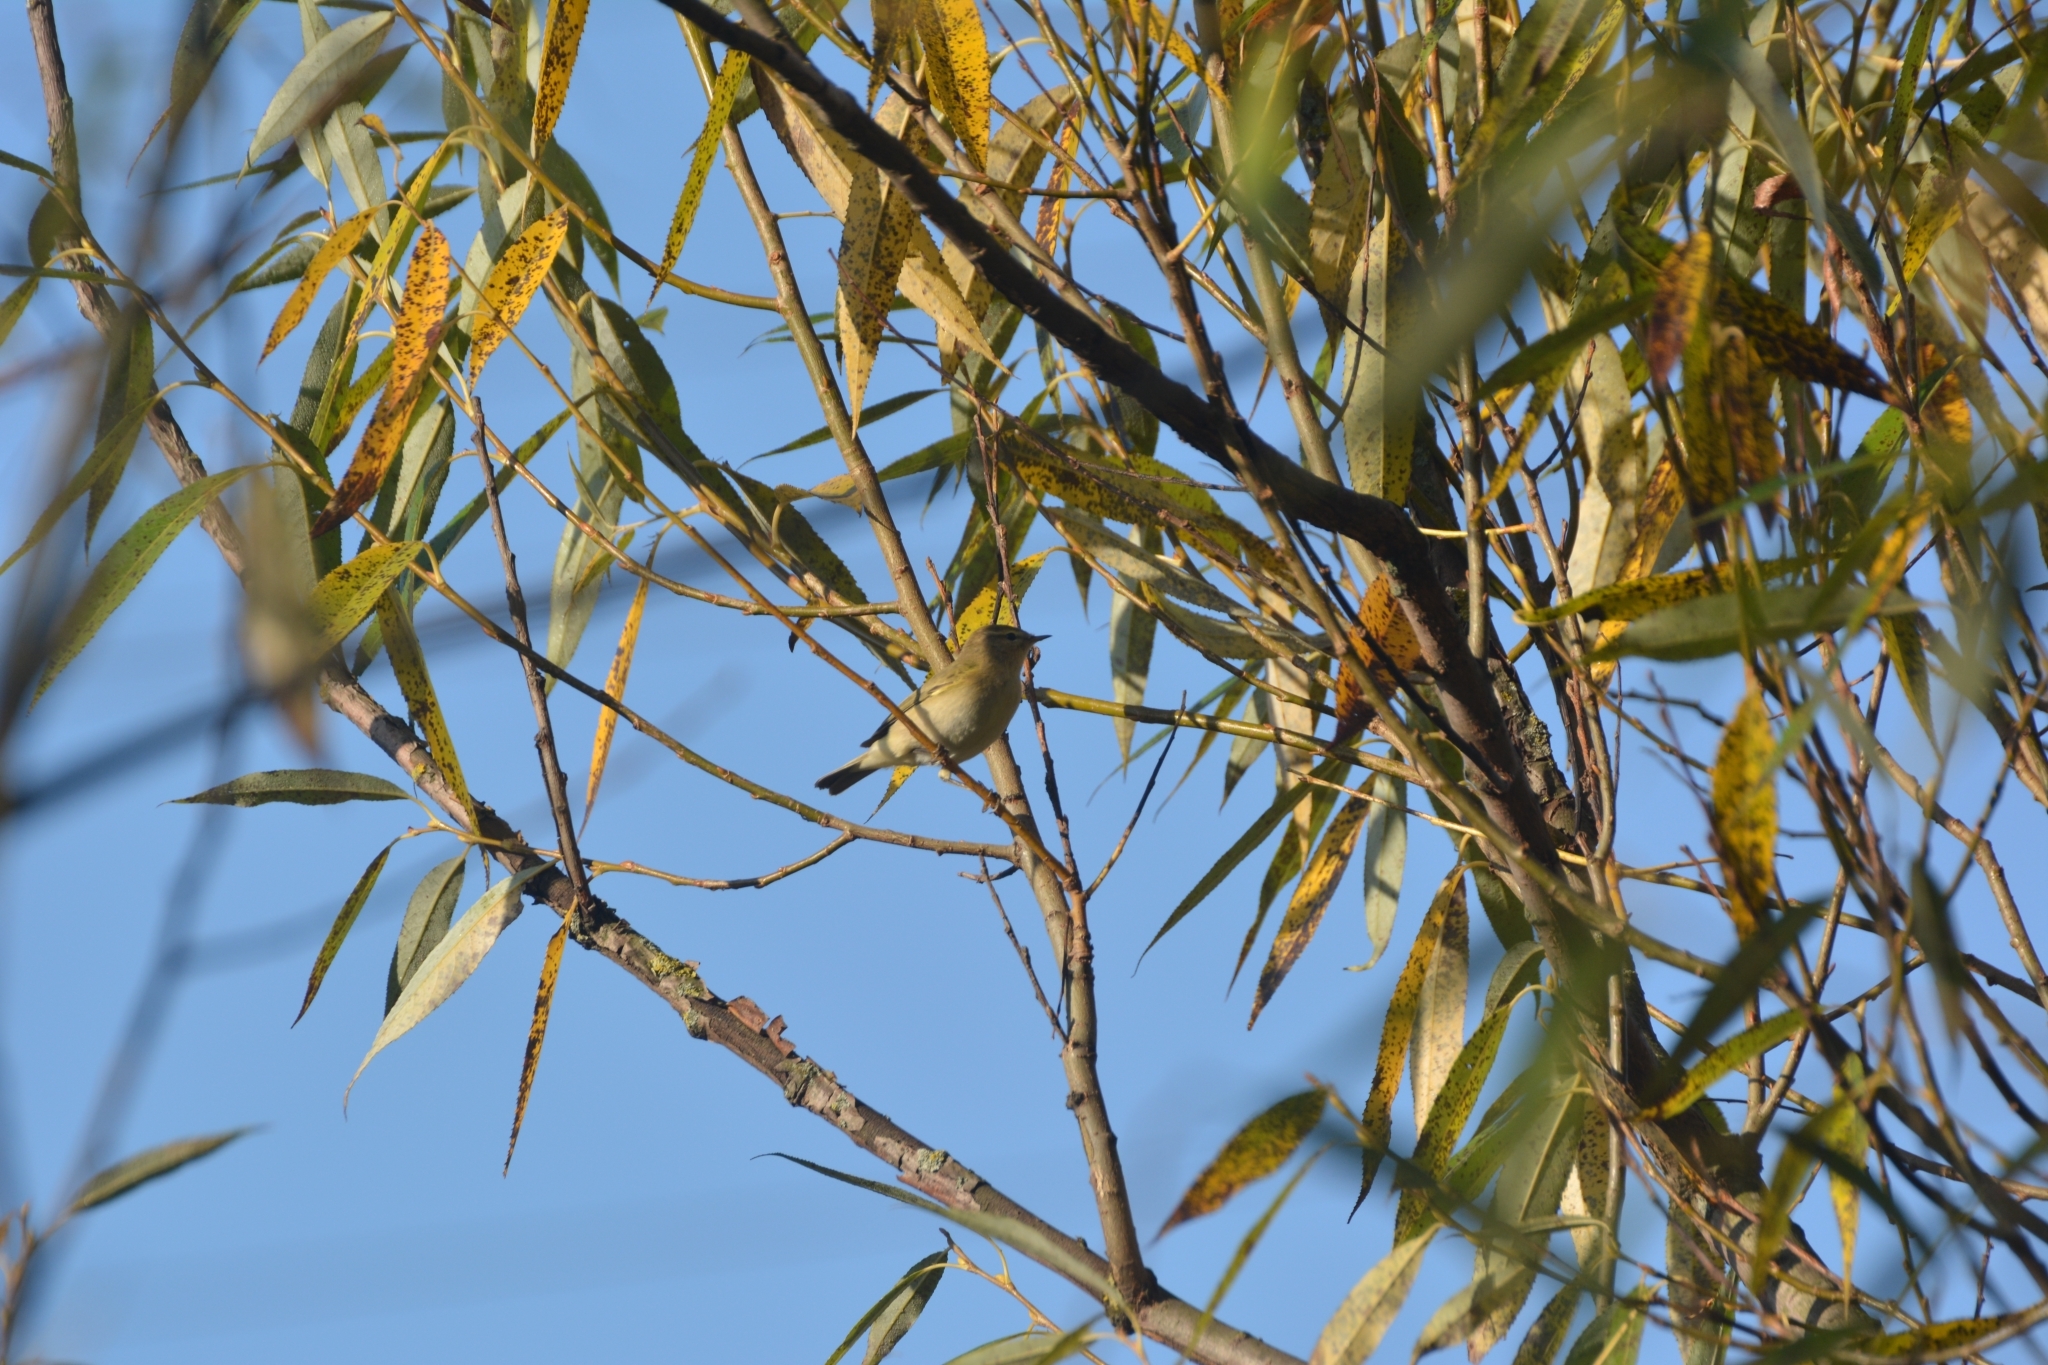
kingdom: Animalia
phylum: Chordata
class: Aves
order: Passeriformes
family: Phylloscopidae
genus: Phylloscopus
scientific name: Phylloscopus collybita
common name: Common chiffchaff
